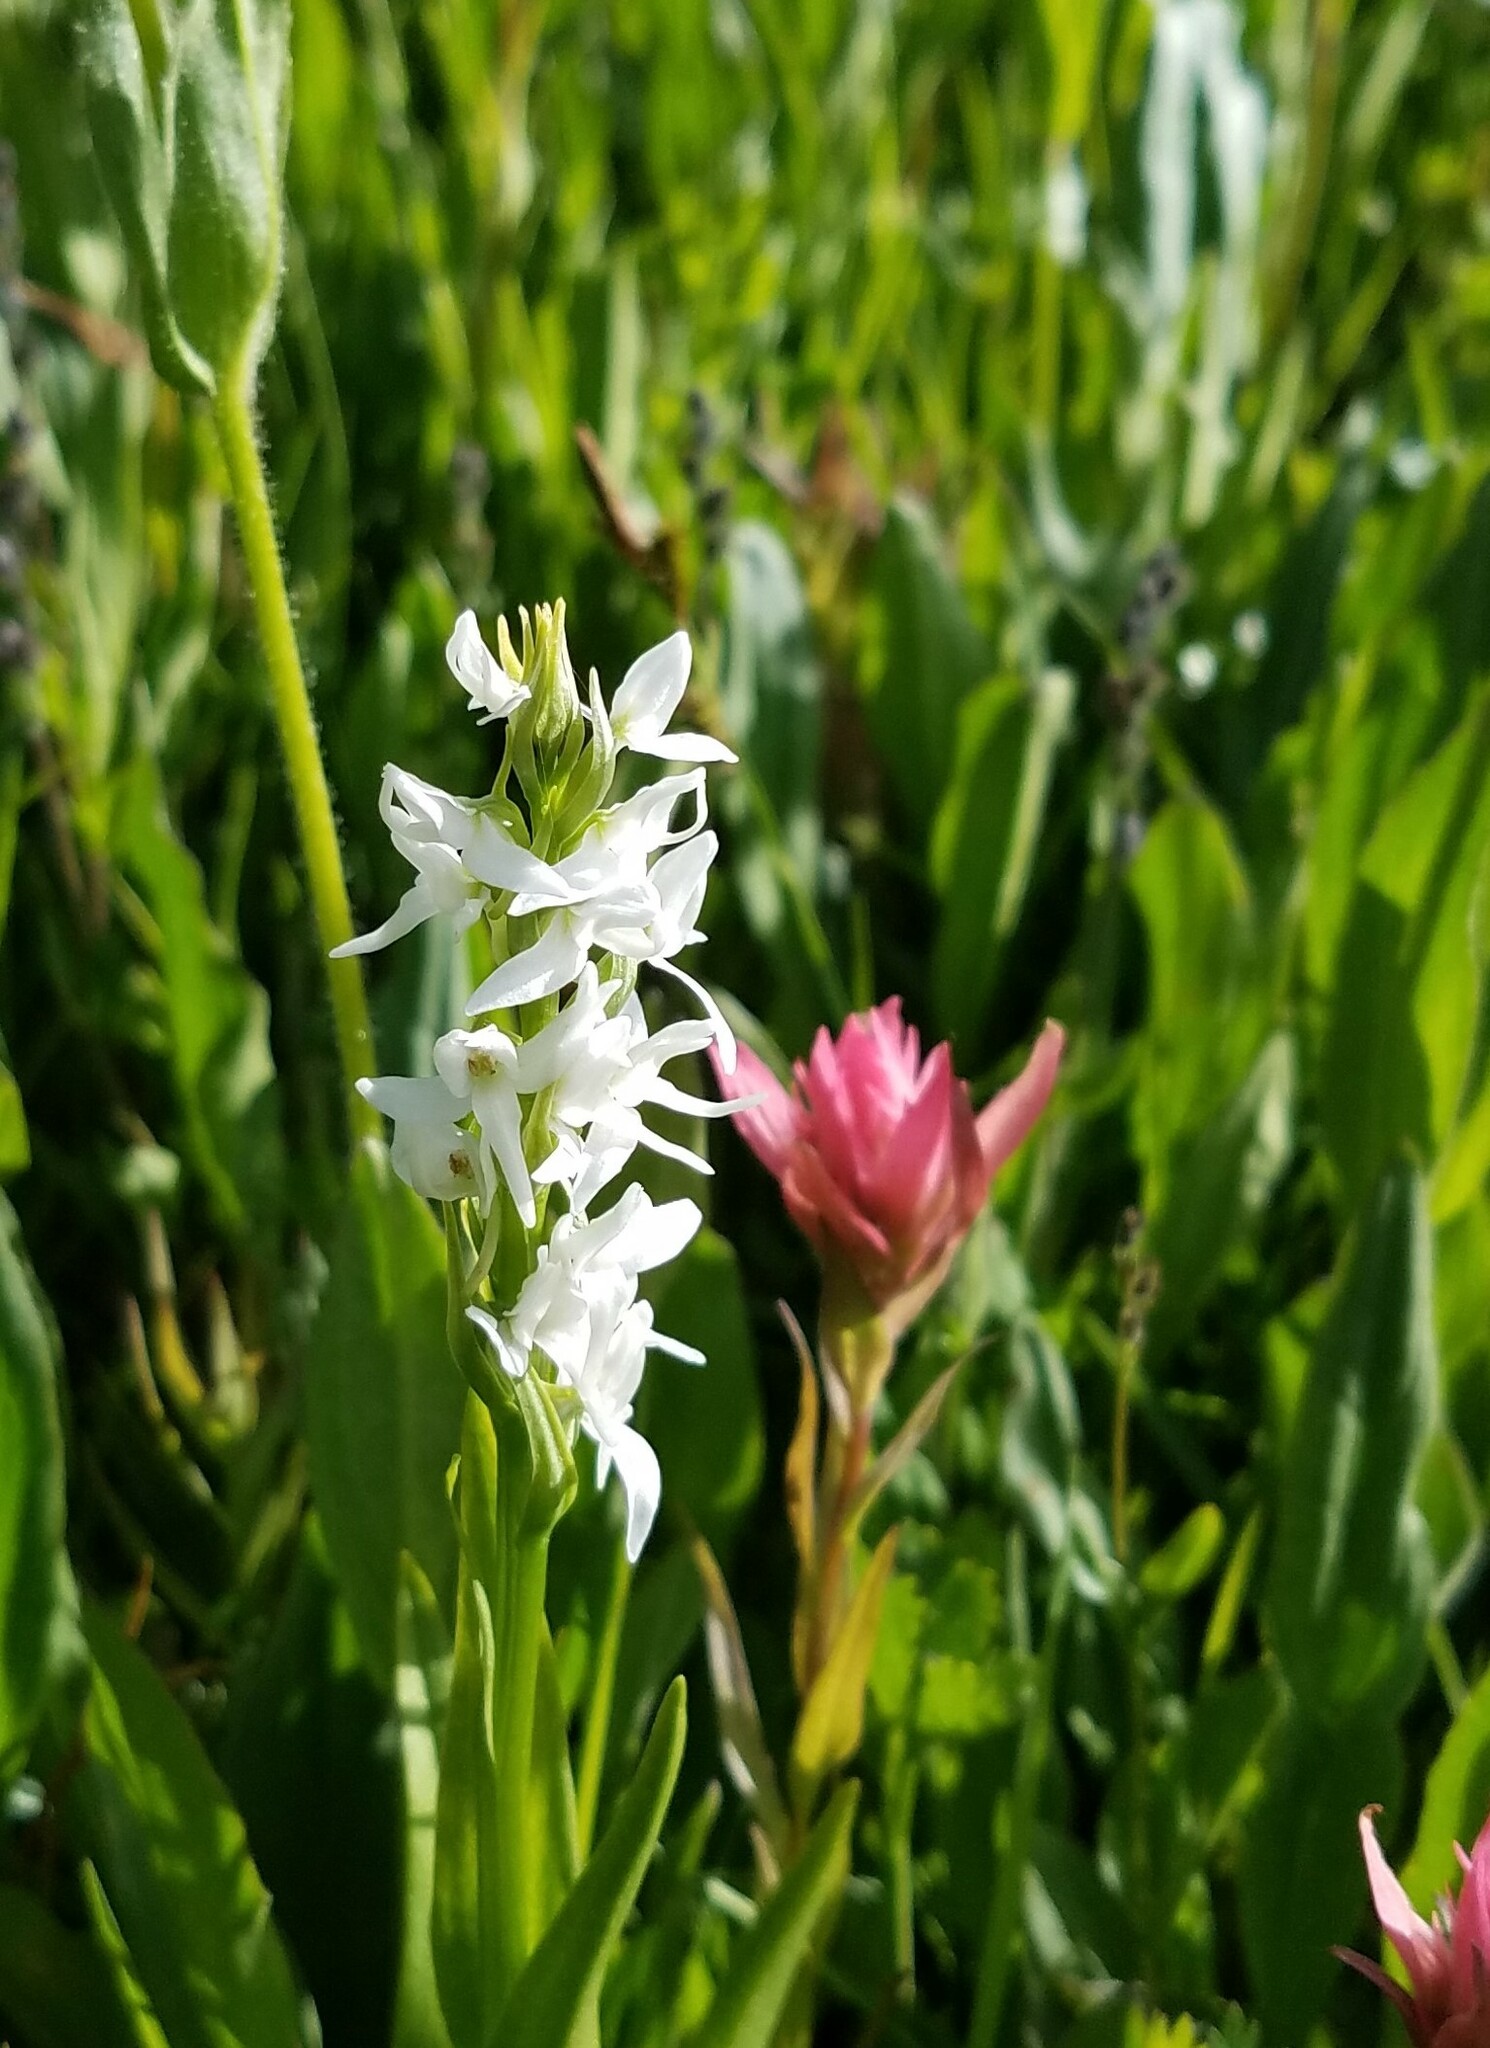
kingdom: Plantae
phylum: Tracheophyta
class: Liliopsida
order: Asparagales
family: Orchidaceae
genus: Platanthera
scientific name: Platanthera dilatata
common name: Bog candles
